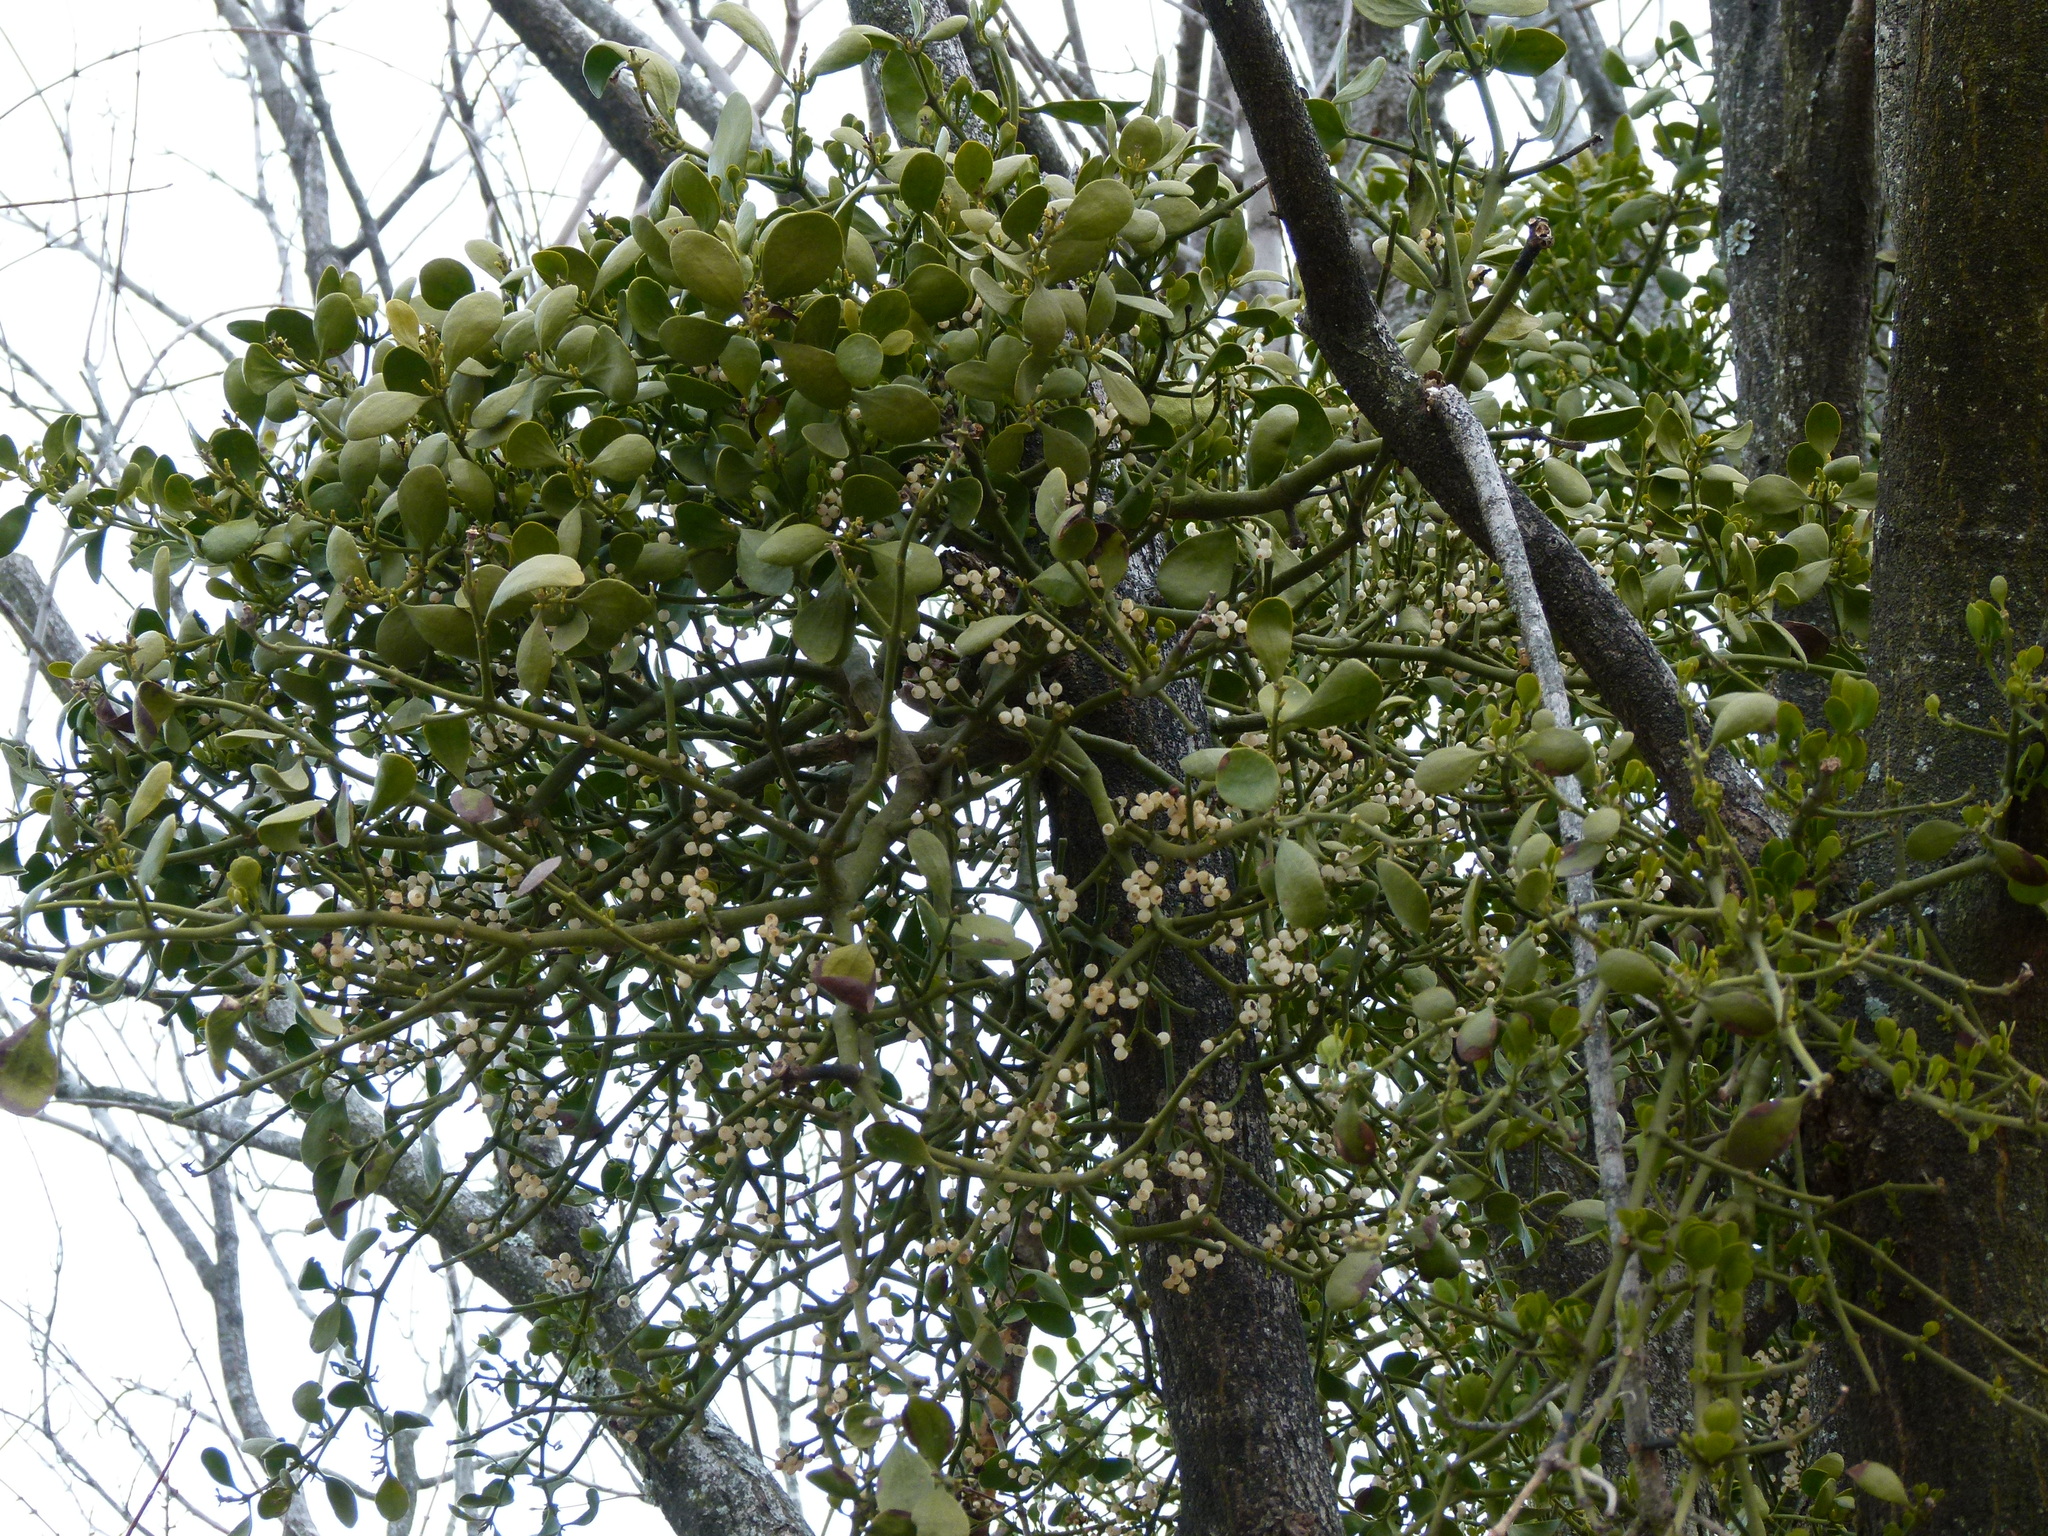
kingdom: Plantae
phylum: Tracheophyta
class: Magnoliopsida
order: Santalales
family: Viscaceae
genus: Phoradendron
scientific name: Phoradendron leucarpum
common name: Pacific mistletoe
